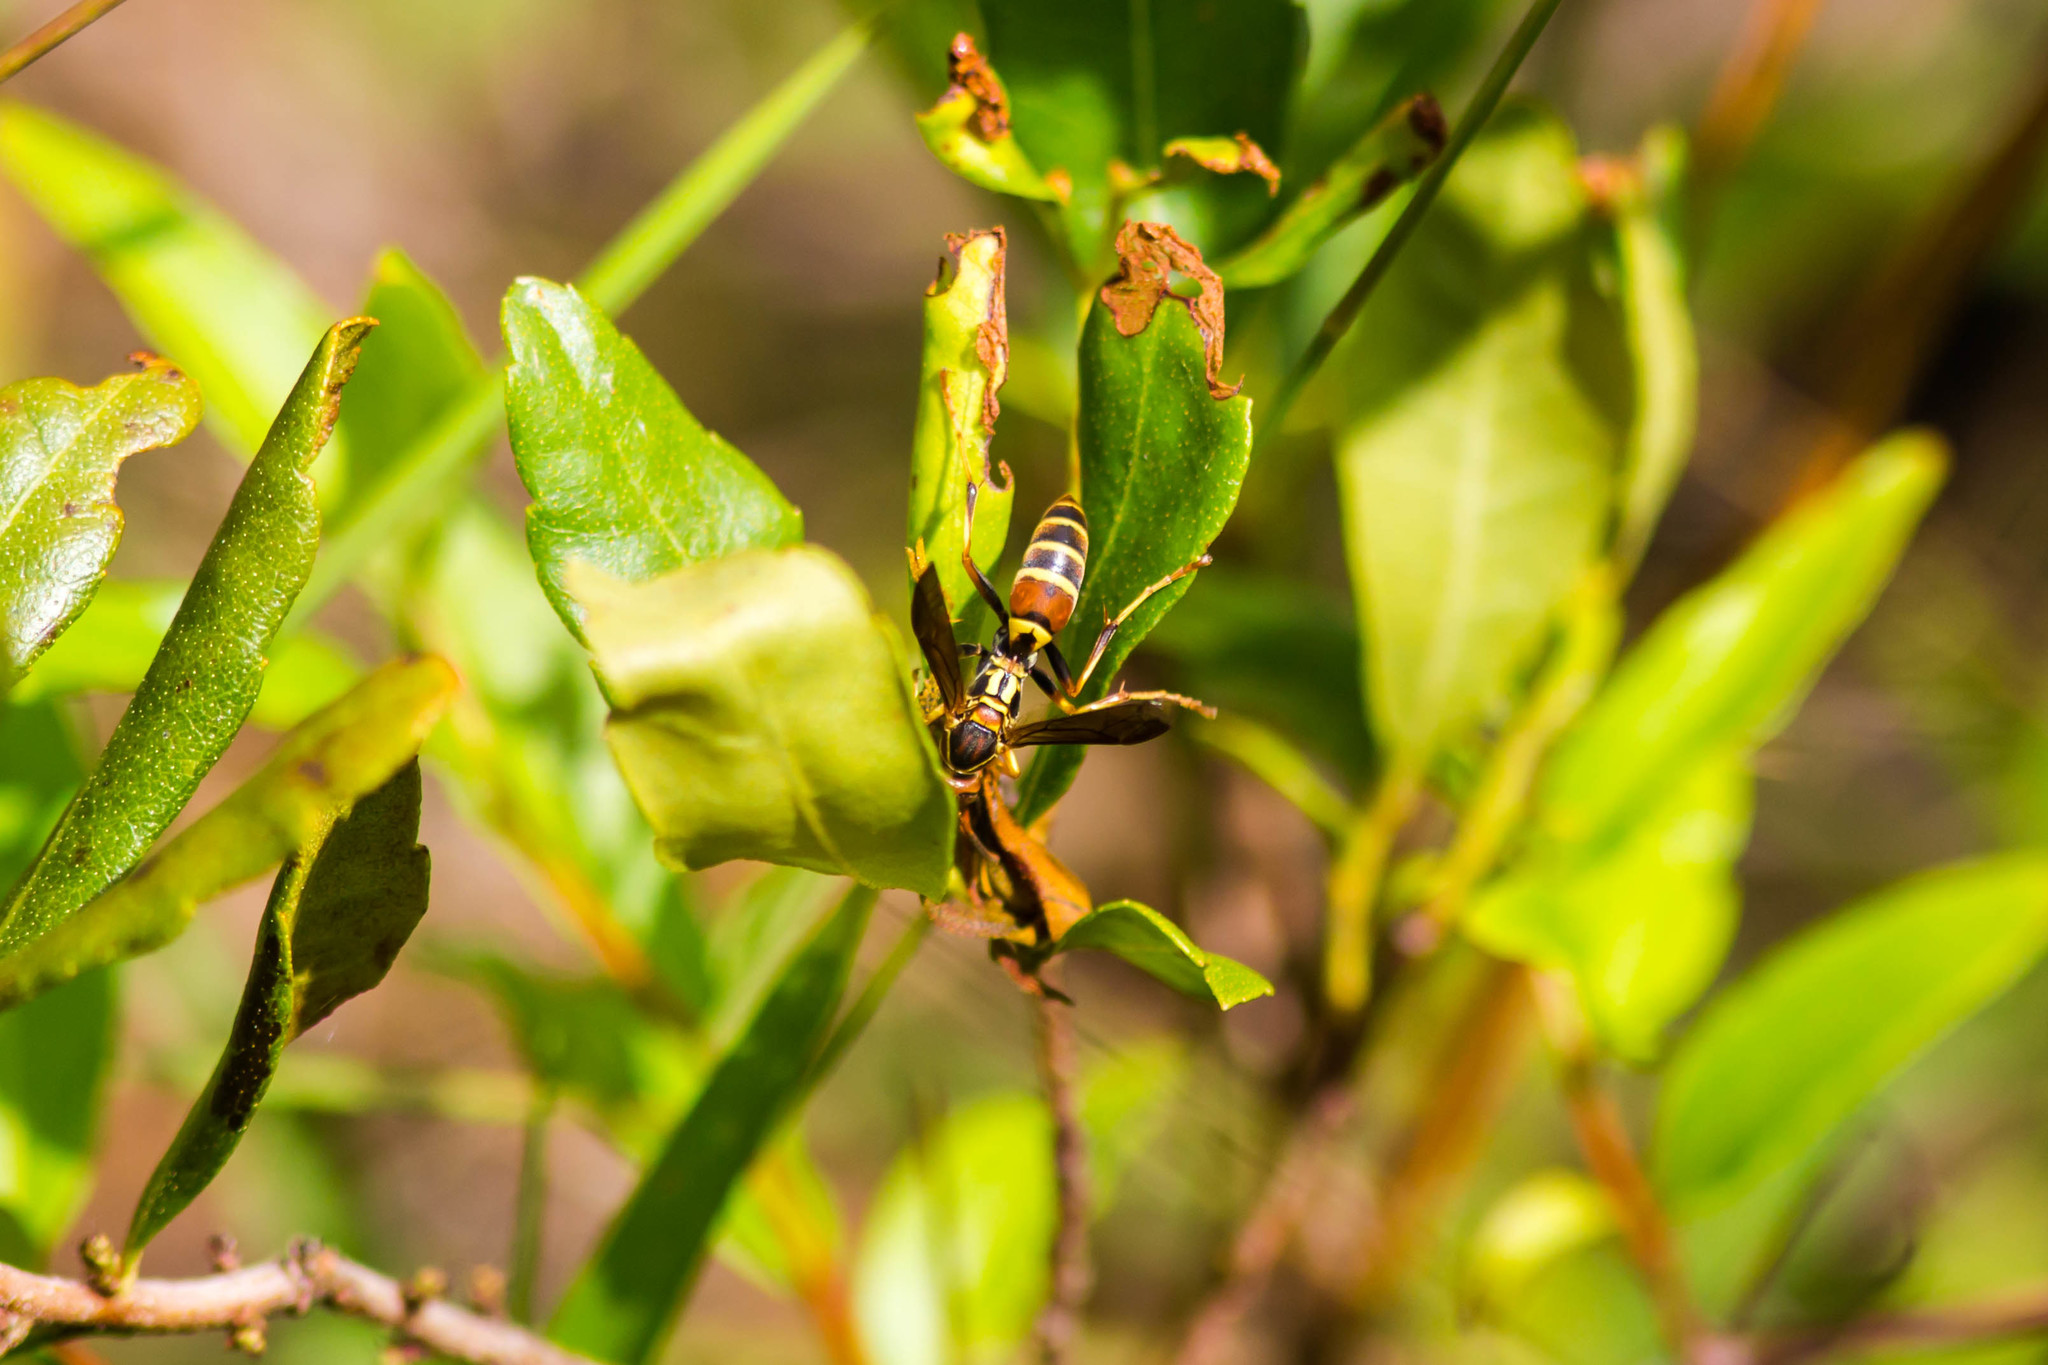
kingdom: Animalia
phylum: Arthropoda
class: Insecta
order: Hymenoptera
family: Eumenidae
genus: Polistes
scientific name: Polistes dorsalis
